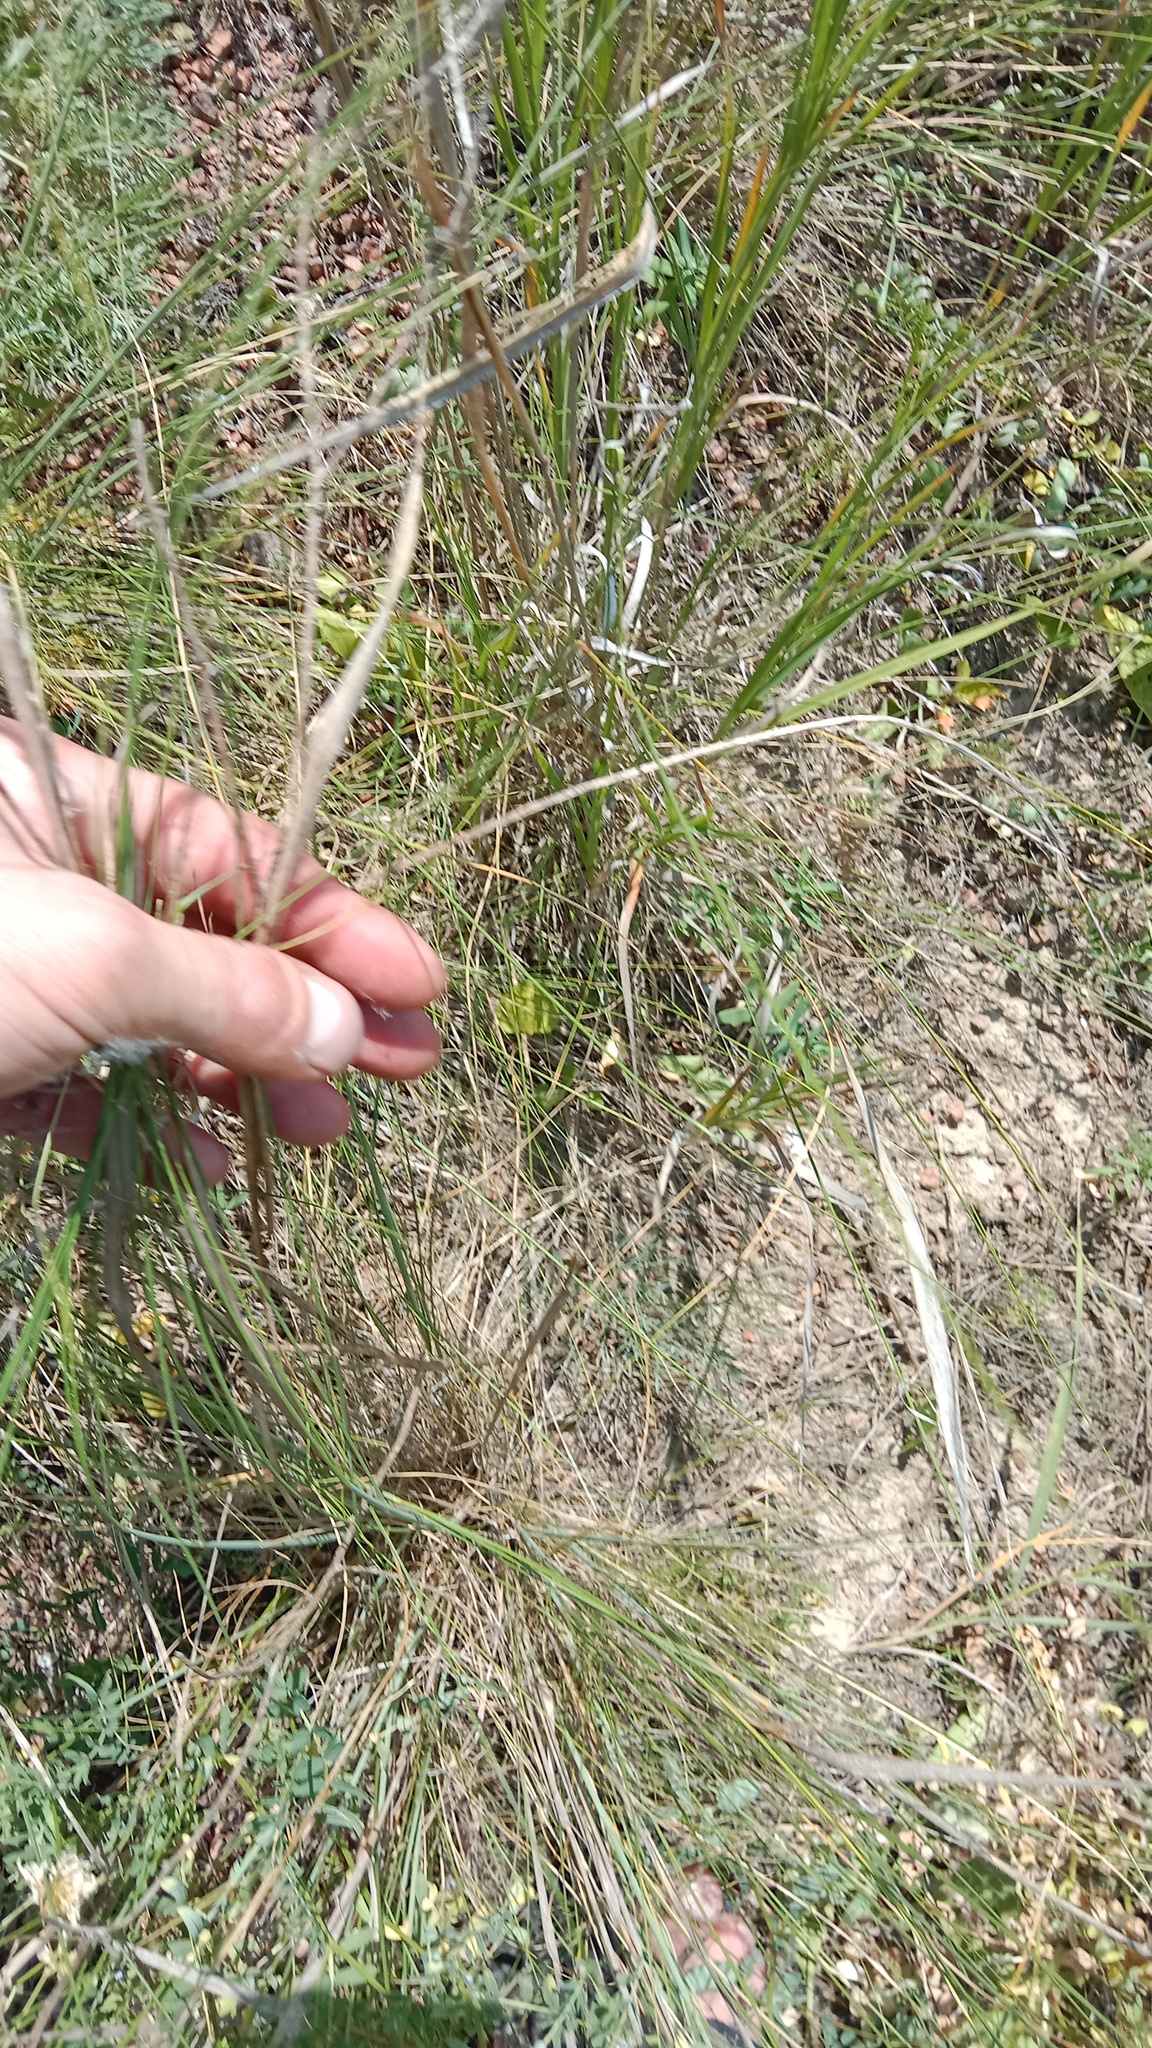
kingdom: Plantae
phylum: Tracheophyta
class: Liliopsida
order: Poales
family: Poaceae
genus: Stipa
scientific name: Stipa capillata
